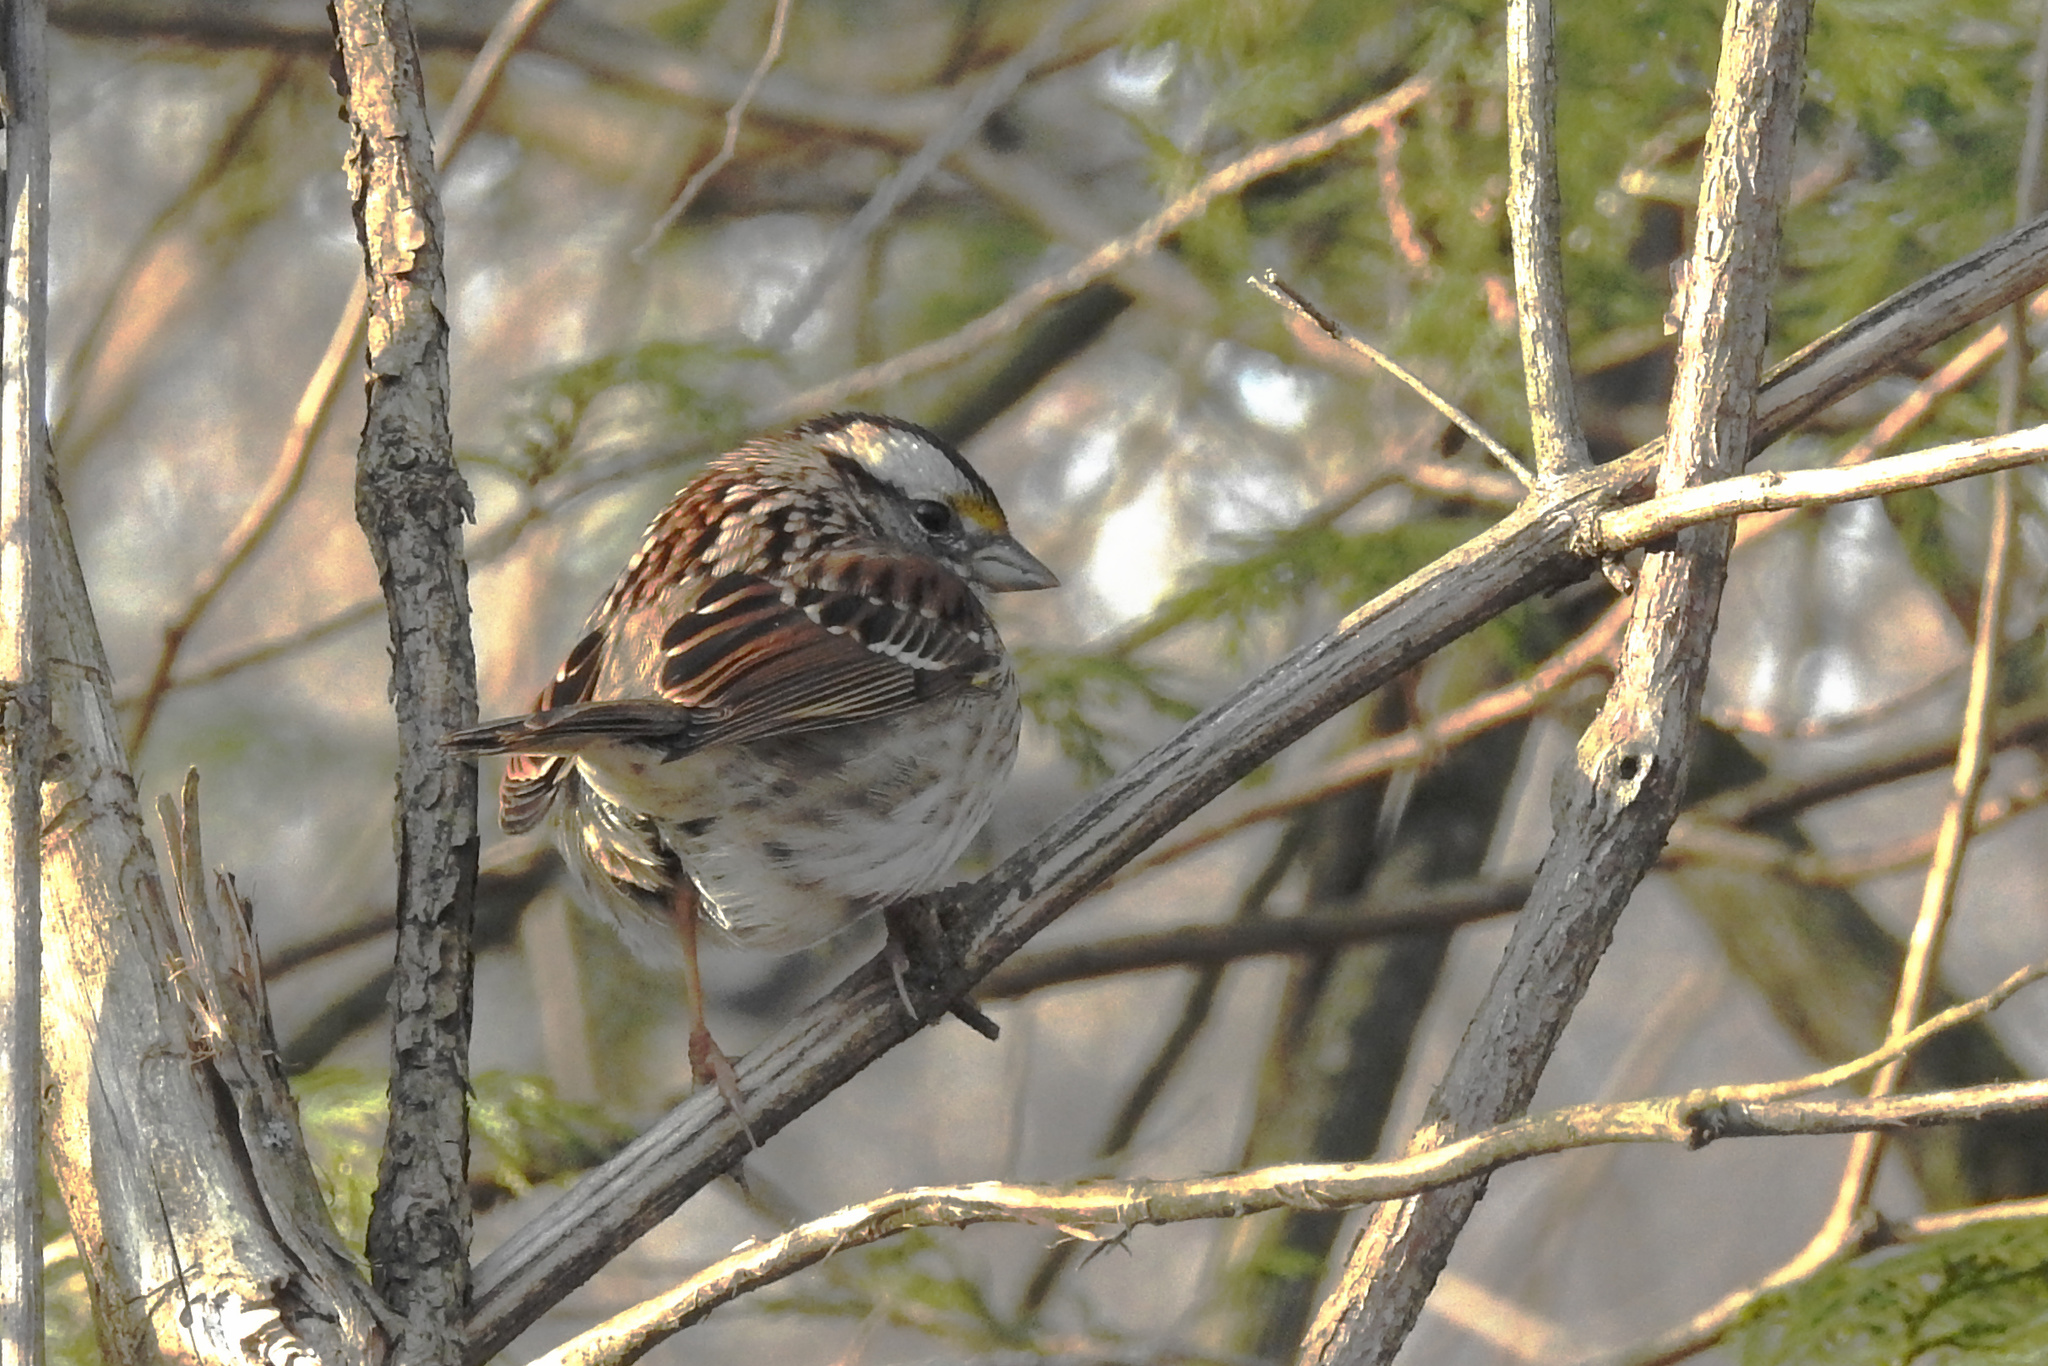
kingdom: Animalia
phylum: Chordata
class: Aves
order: Passeriformes
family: Passerellidae
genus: Zonotrichia
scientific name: Zonotrichia albicollis
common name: White-throated sparrow
